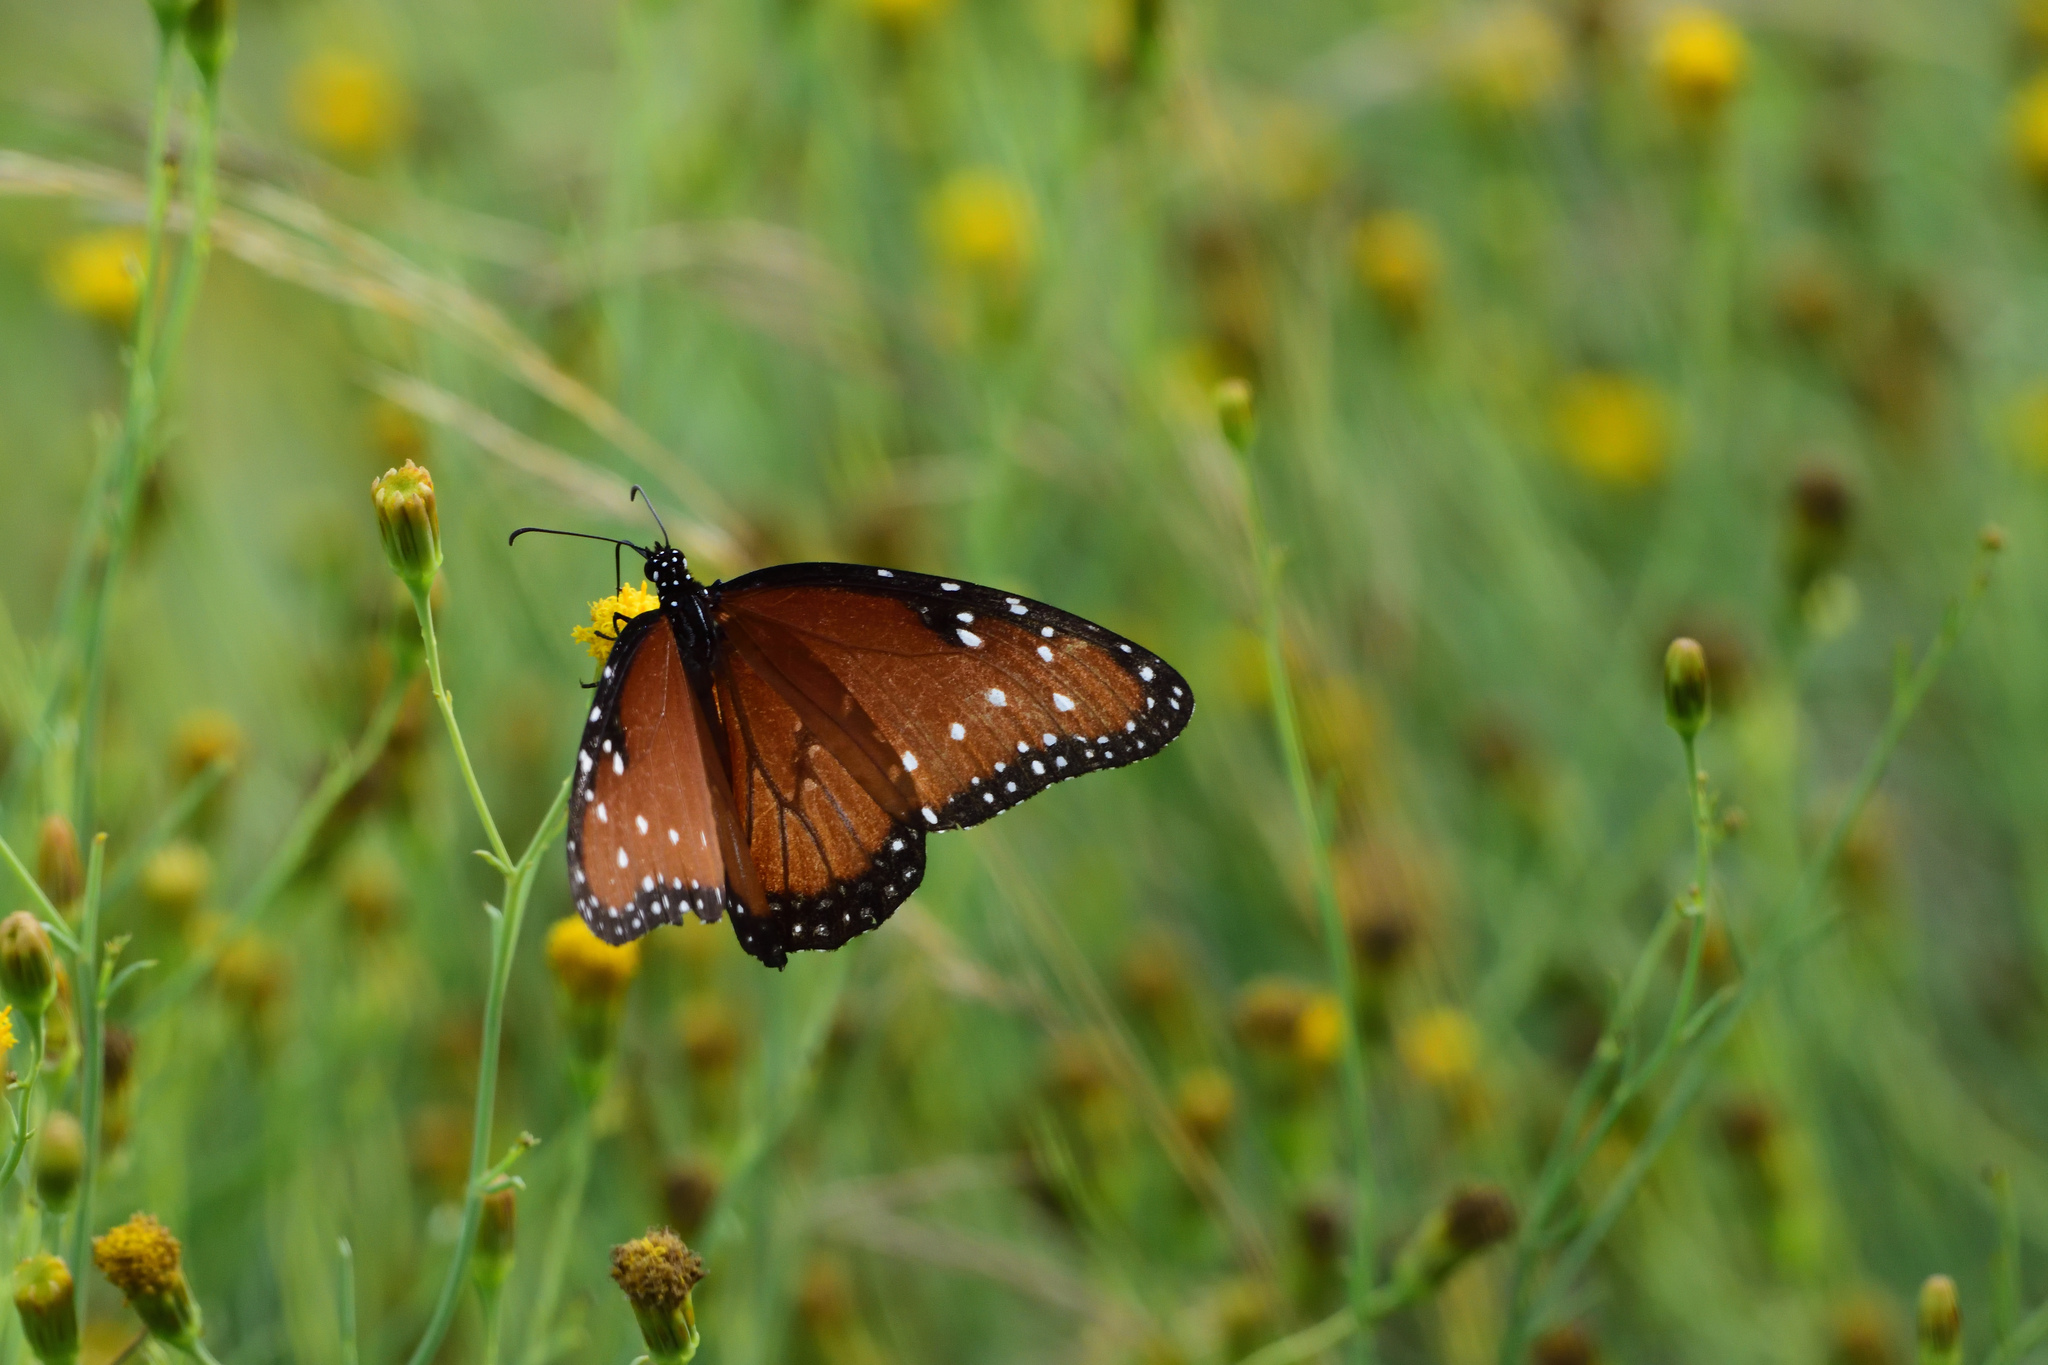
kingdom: Animalia
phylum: Arthropoda
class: Insecta
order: Lepidoptera
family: Nymphalidae
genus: Danaus
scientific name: Danaus gilippus
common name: Queen
